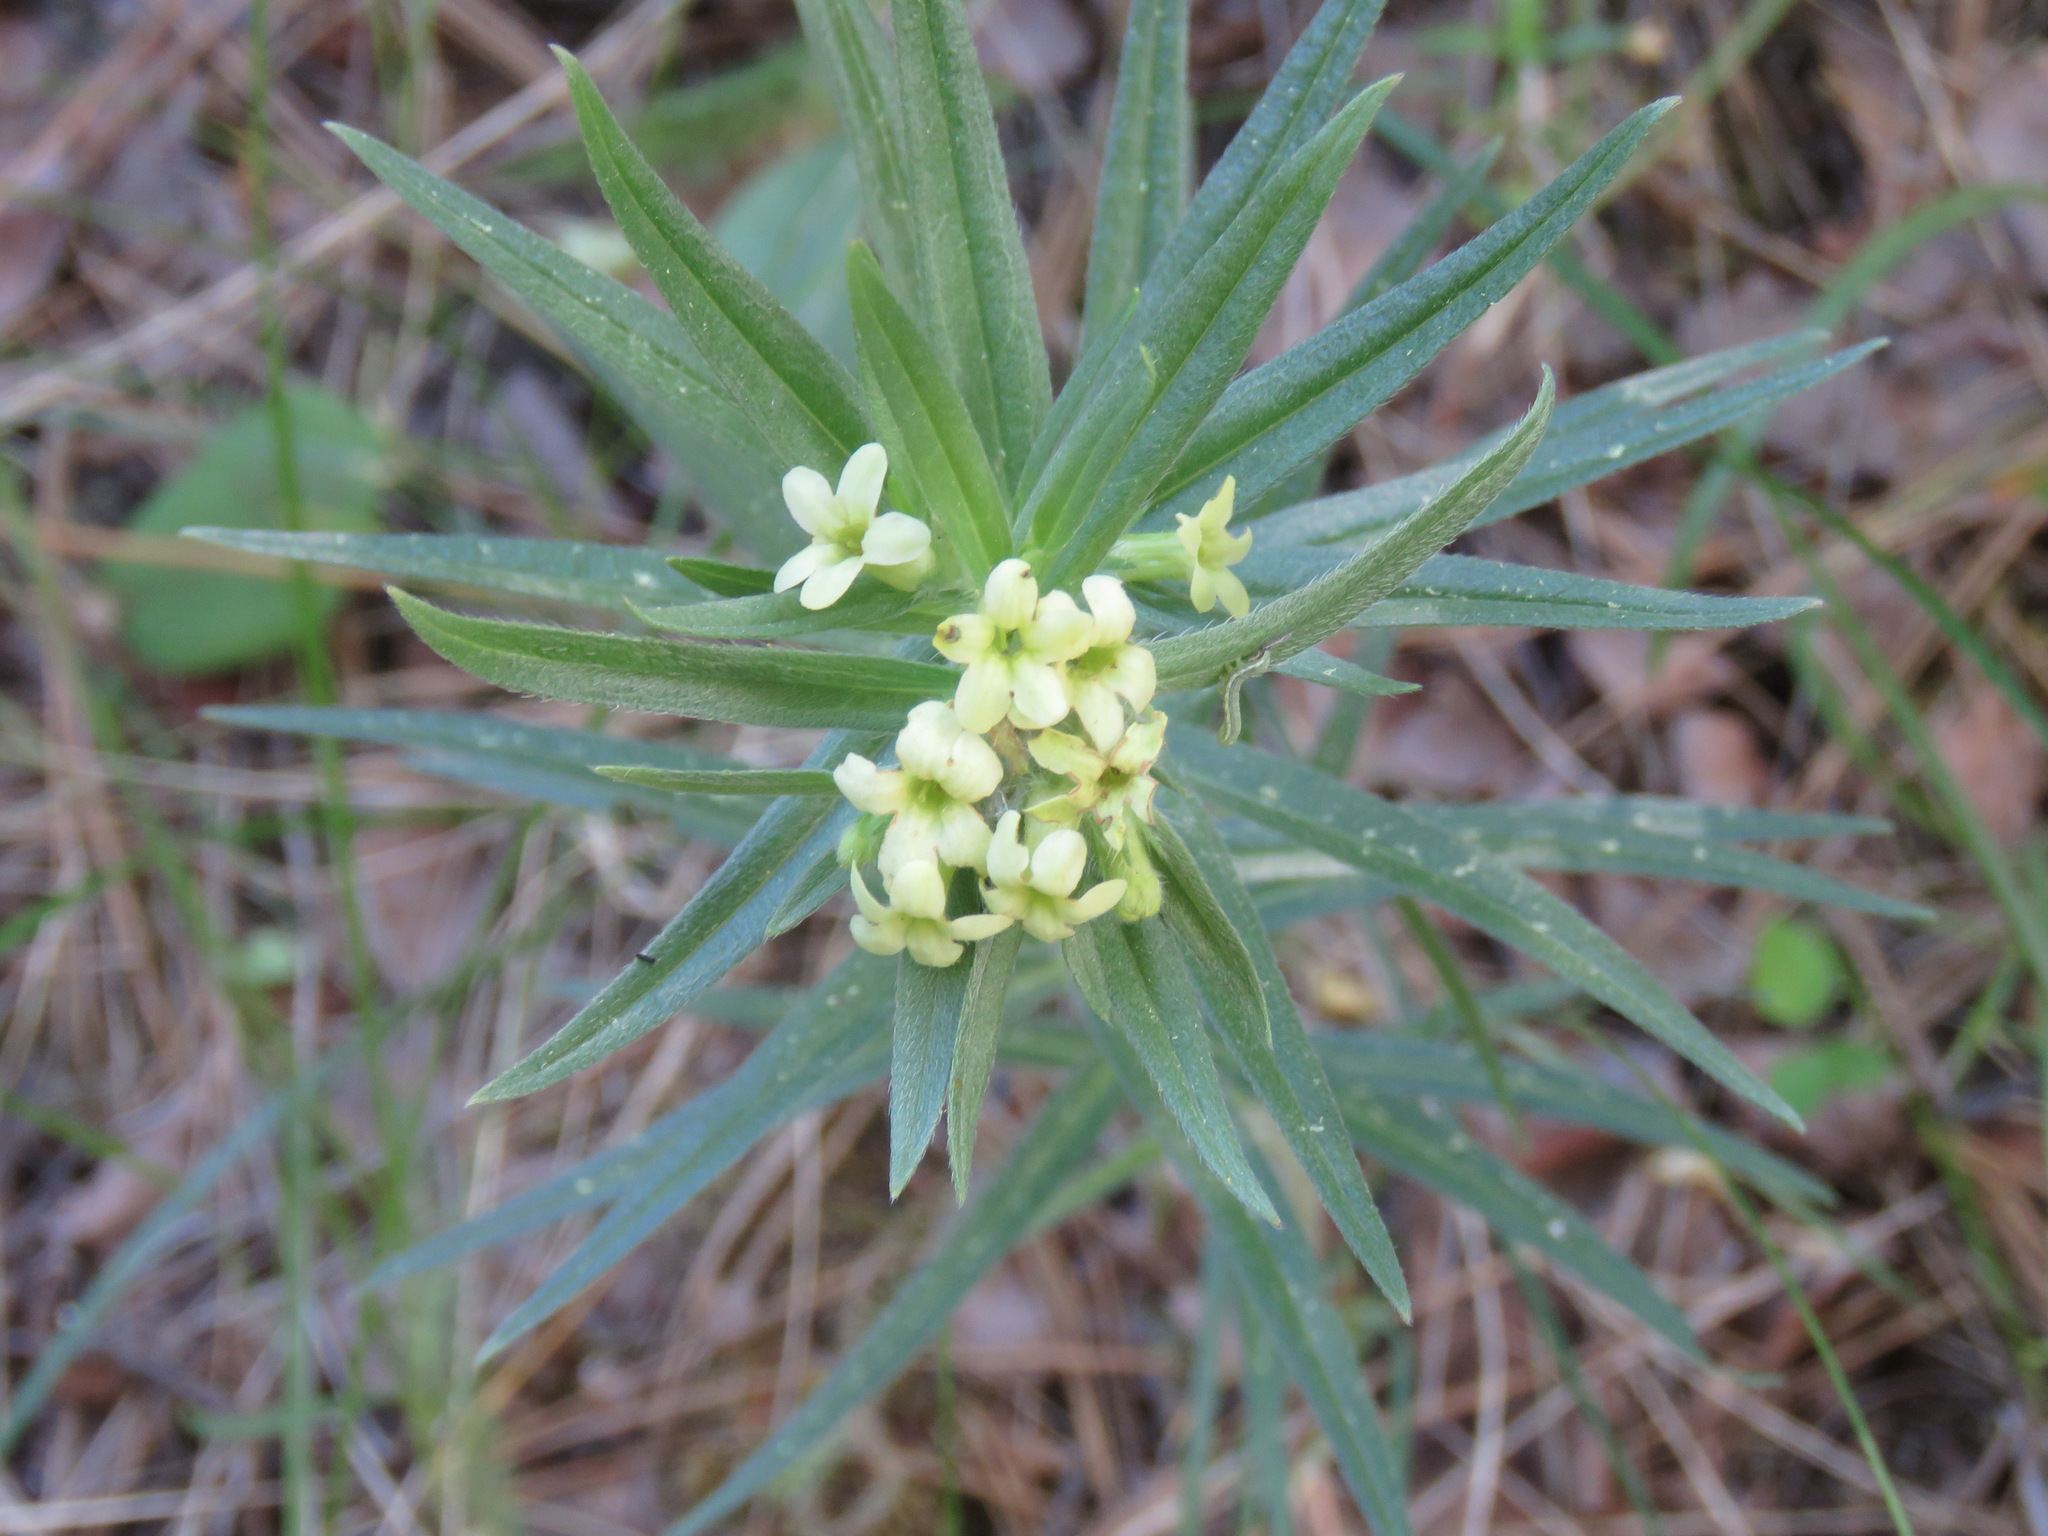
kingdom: Plantae
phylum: Tracheophyta
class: Magnoliopsida
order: Boraginales
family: Boraginaceae
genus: Lithospermum
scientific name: Lithospermum ruderale
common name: Western gromwell
